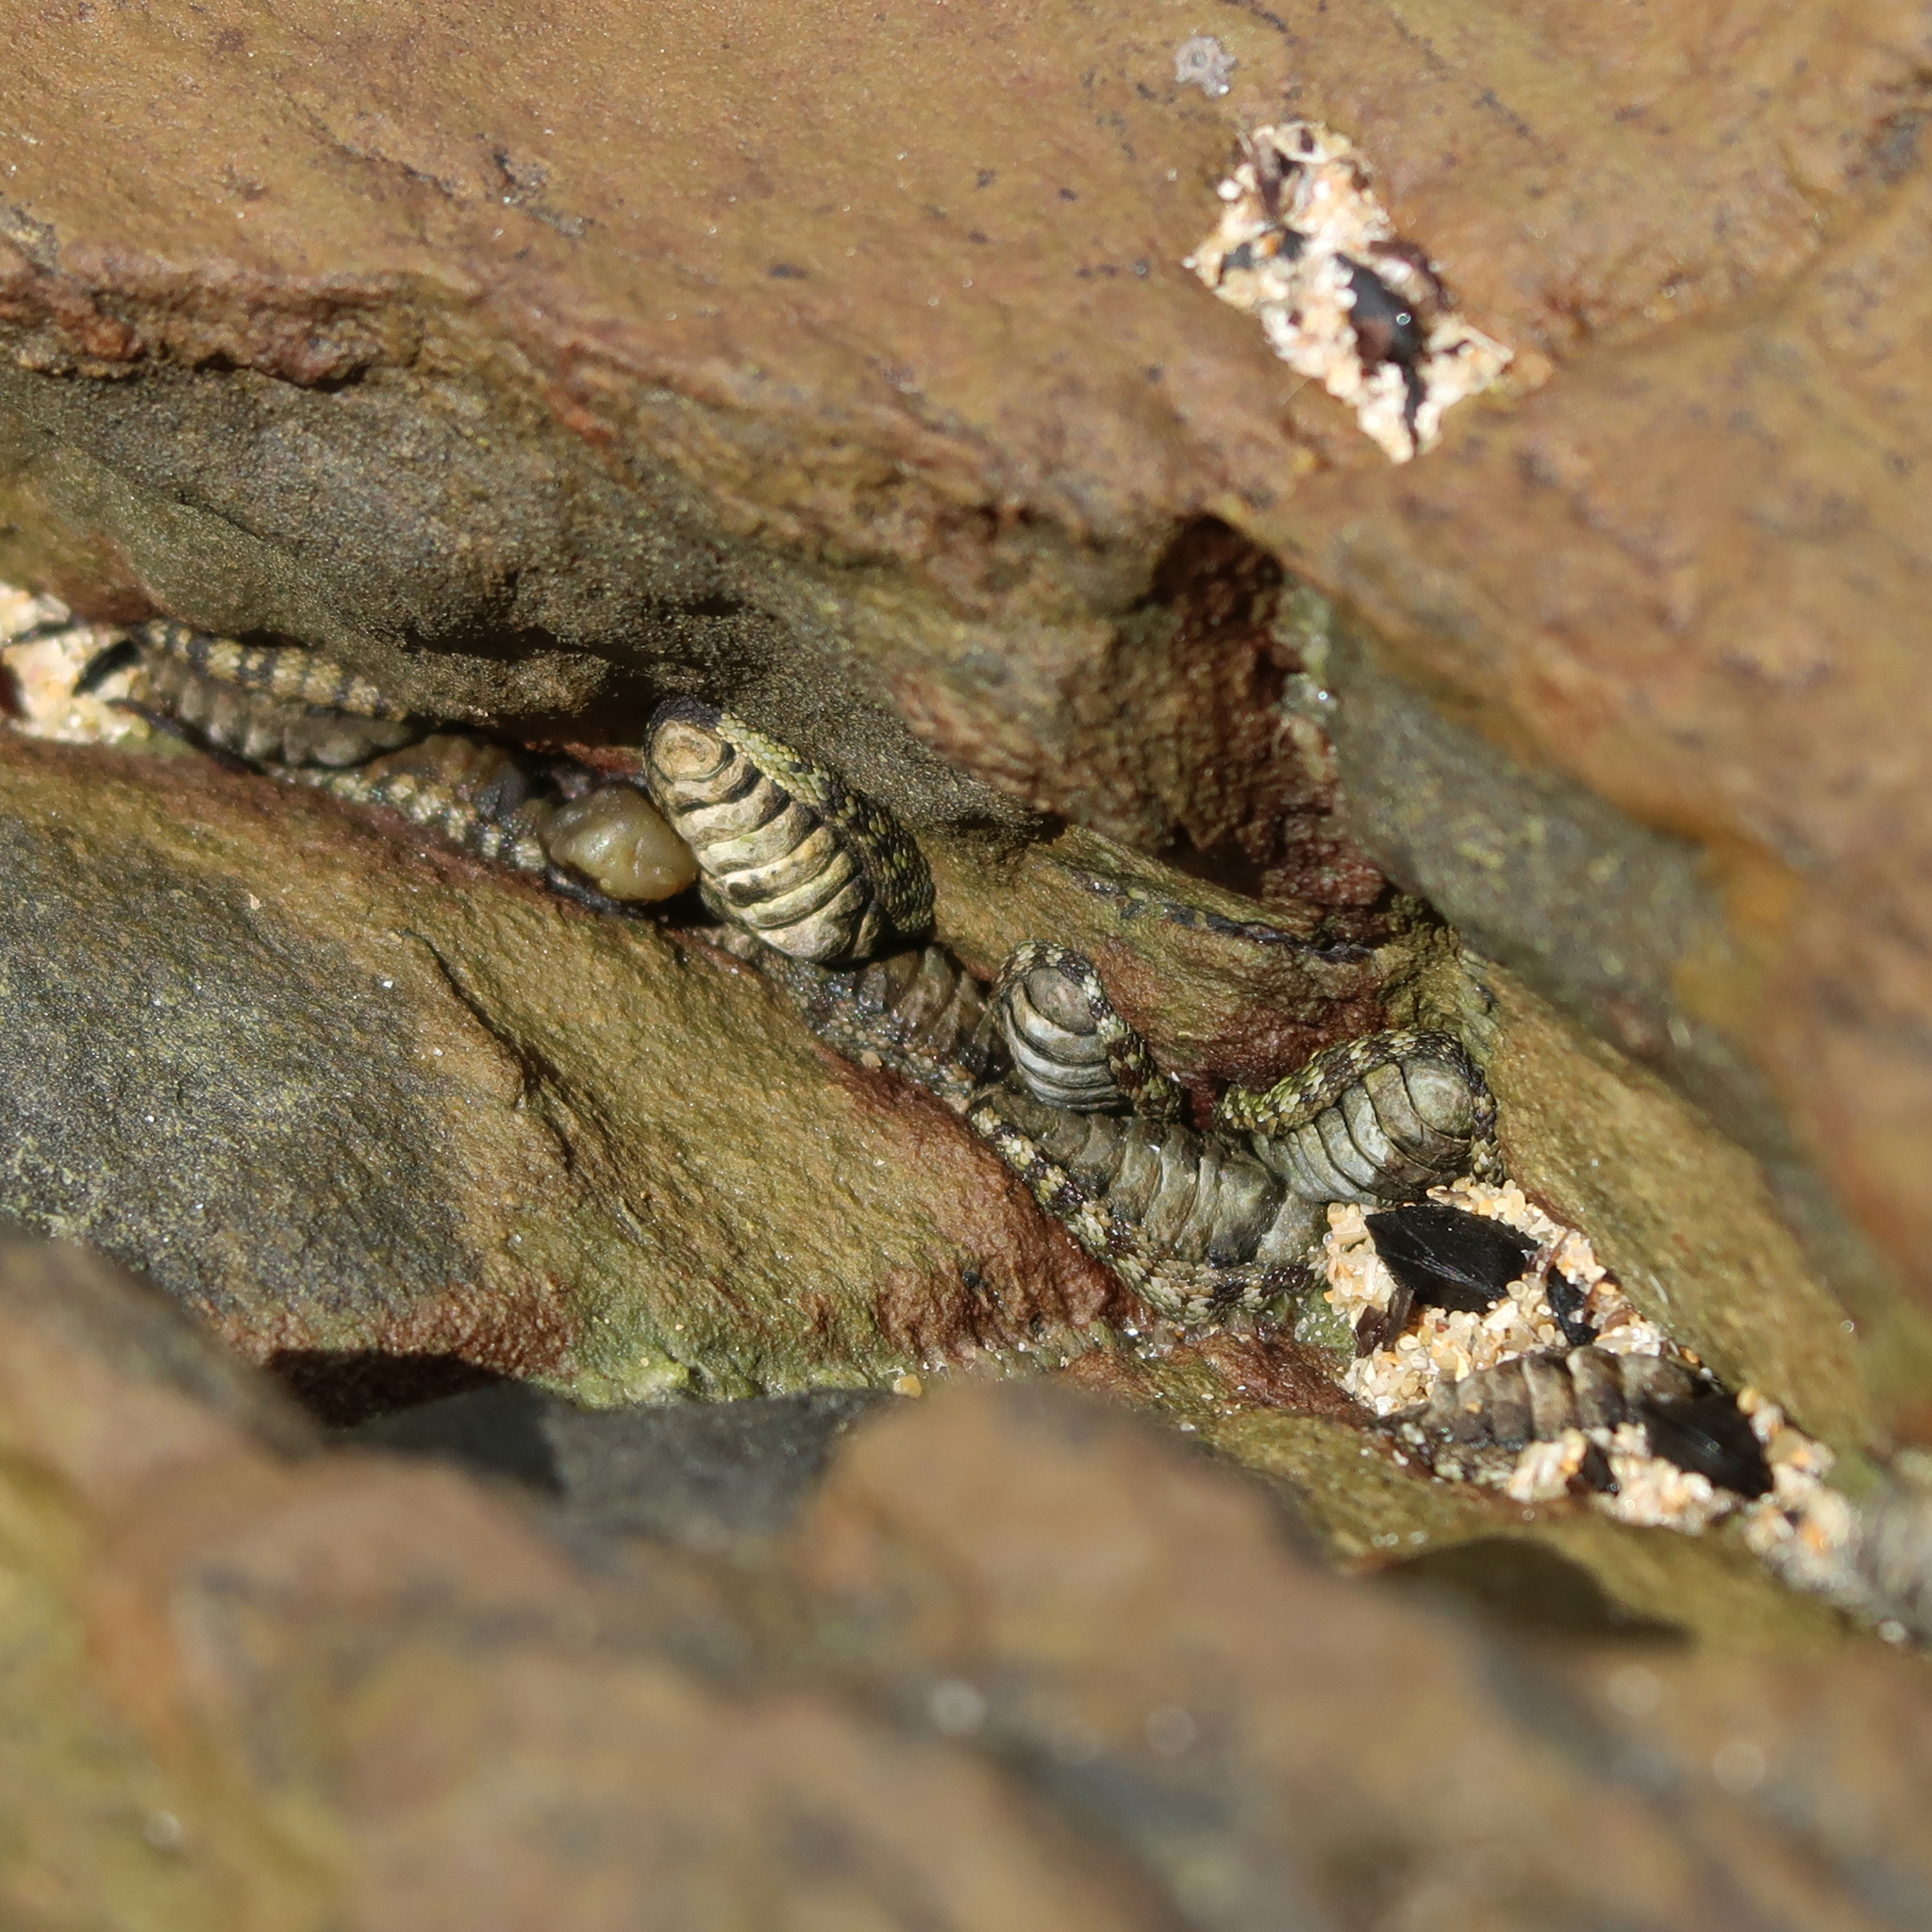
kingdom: Animalia
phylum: Mollusca
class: Polyplacophora
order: Chitonida
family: Chitonidae
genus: Sypharochiton
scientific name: Sypharochiton pelliserpentis
